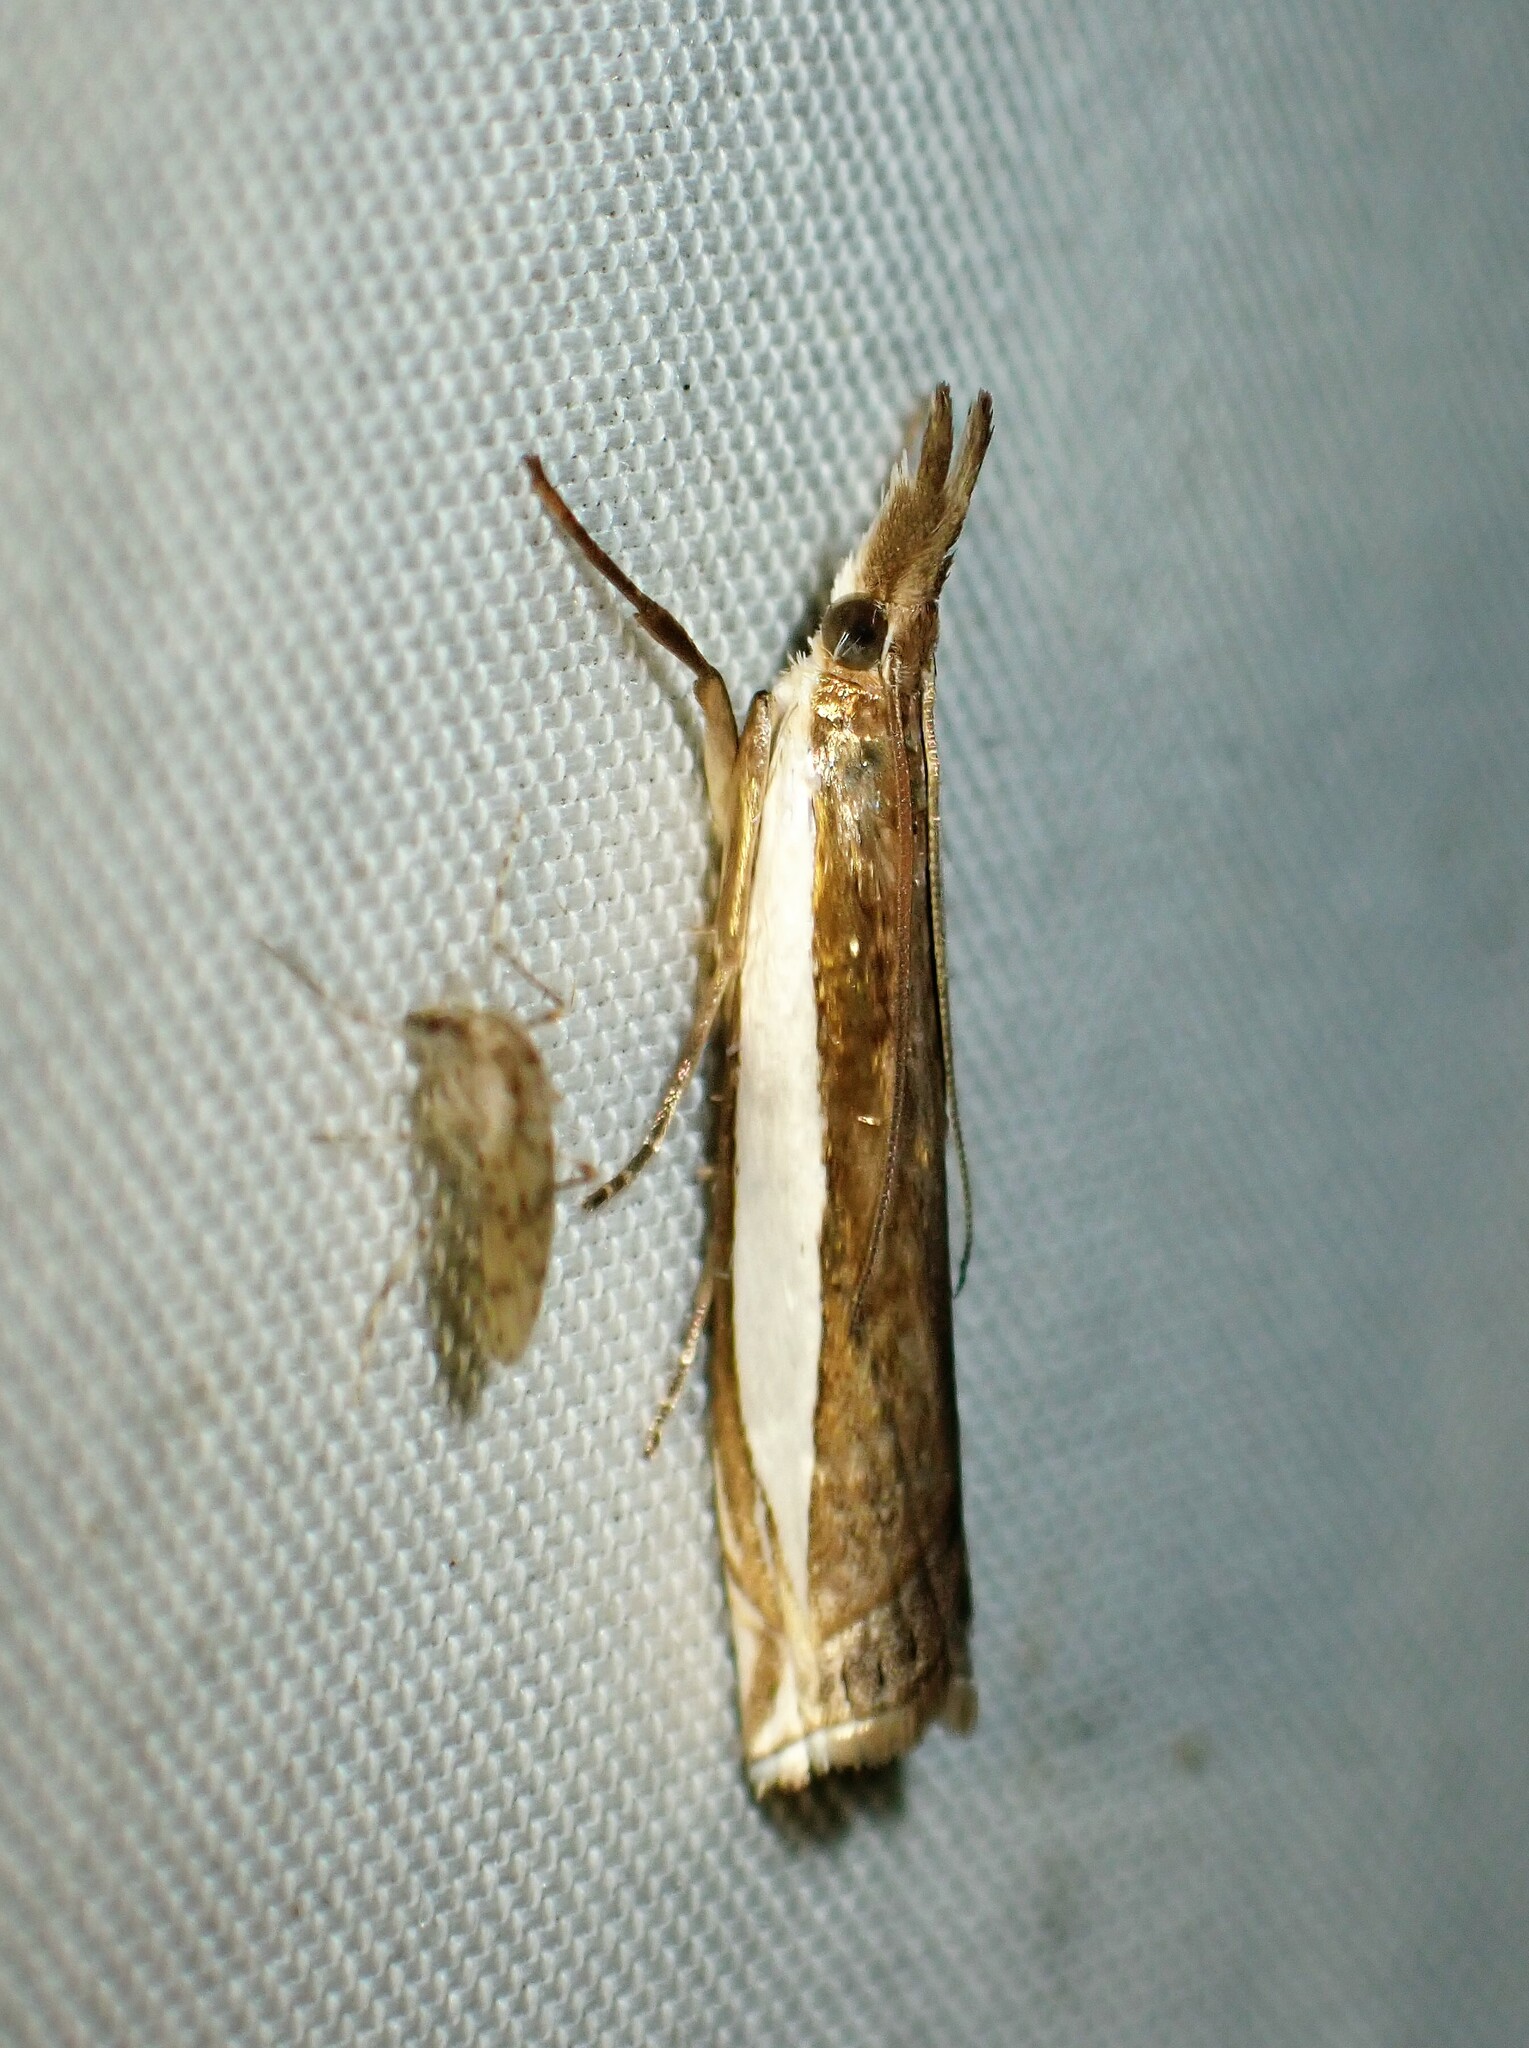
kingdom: Animalia
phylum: Arthropoda
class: Insecta
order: Lepidoptera
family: Crambidae
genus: Crambus
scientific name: Crambus leachellus
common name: Leach's grass-veneer
